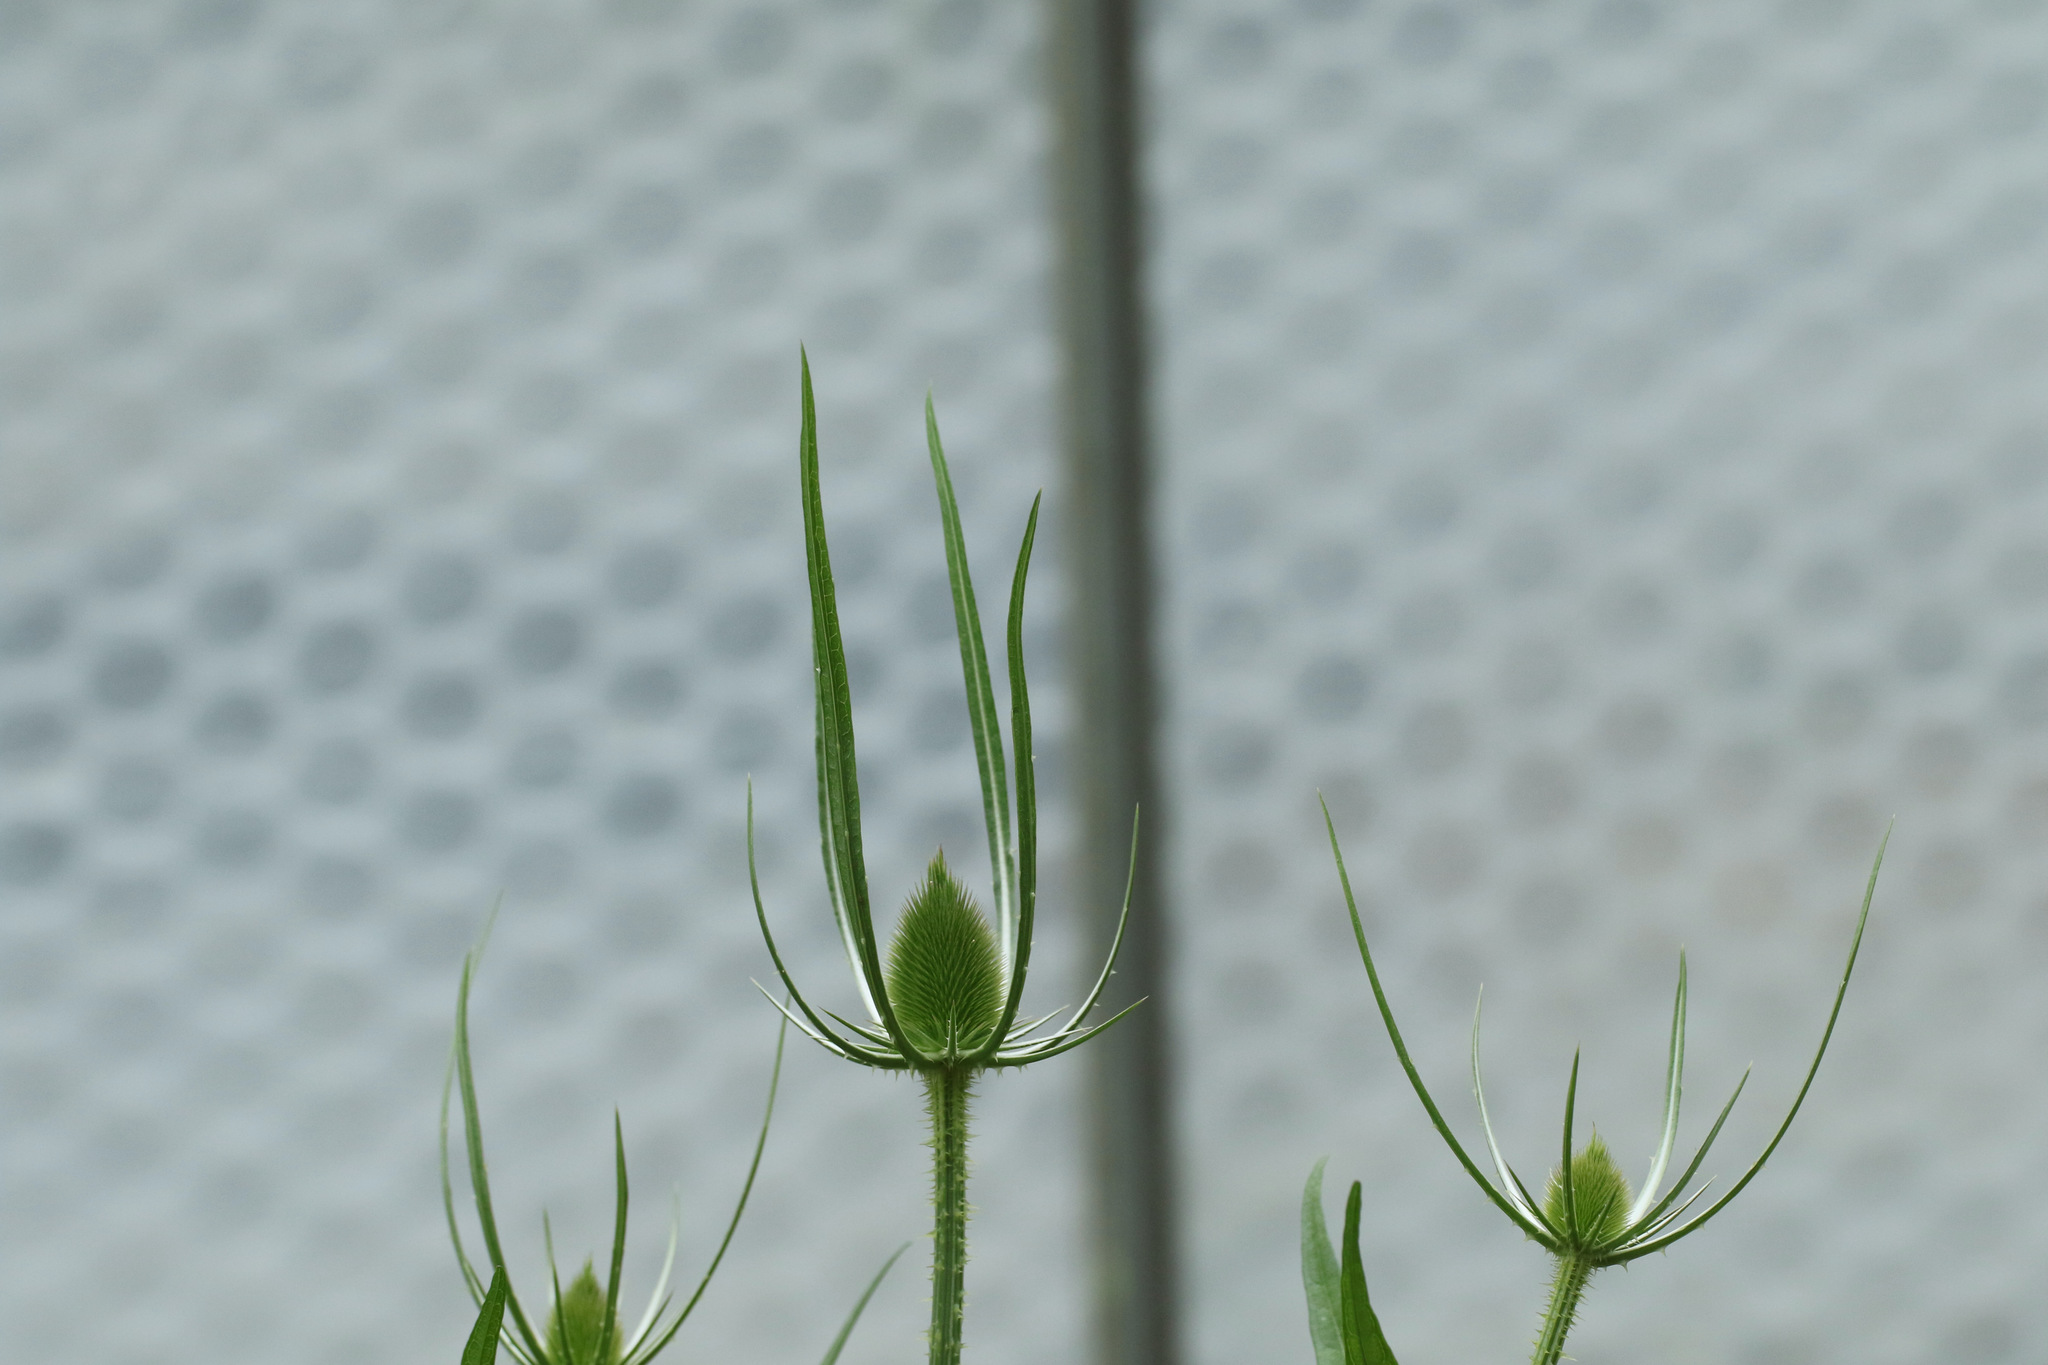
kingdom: Plantae
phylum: Tracheophyta
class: Magnoliopsida
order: Dipsacales
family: Caprifoliaceae
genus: Dipsacus
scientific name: Dipsacus fullonum
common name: Teasel
